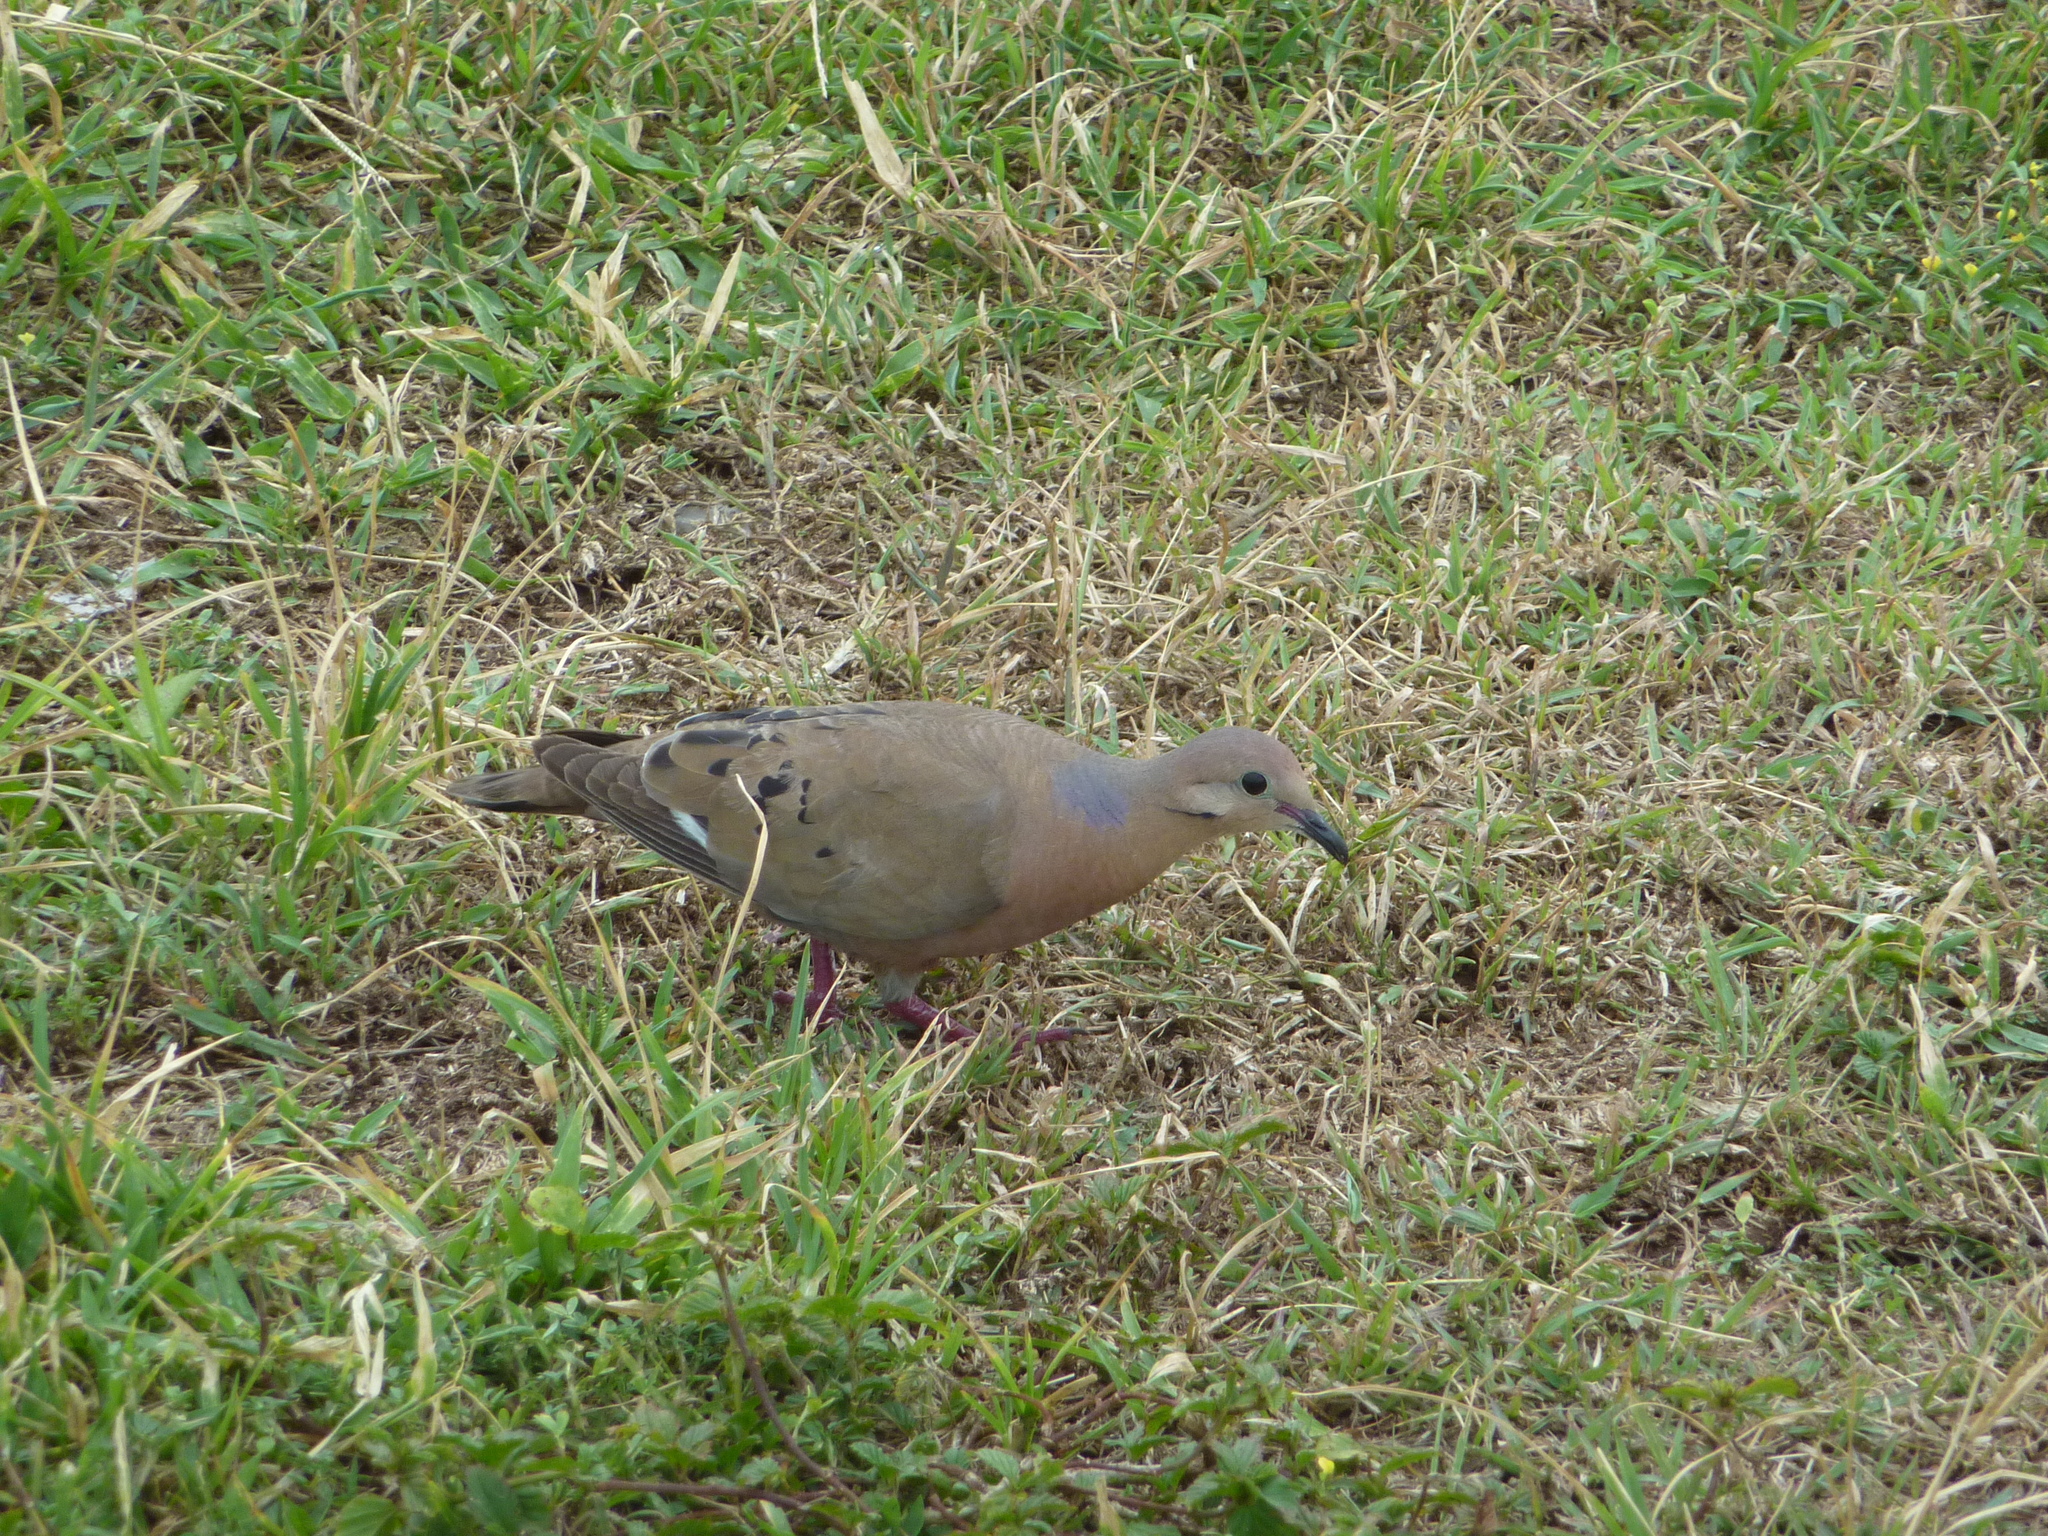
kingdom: Animalia
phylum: Chordata
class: Aves
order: Columbiformes
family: Columbidae
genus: Zenaida
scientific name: Zenaida aurita
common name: Zenaida dove
